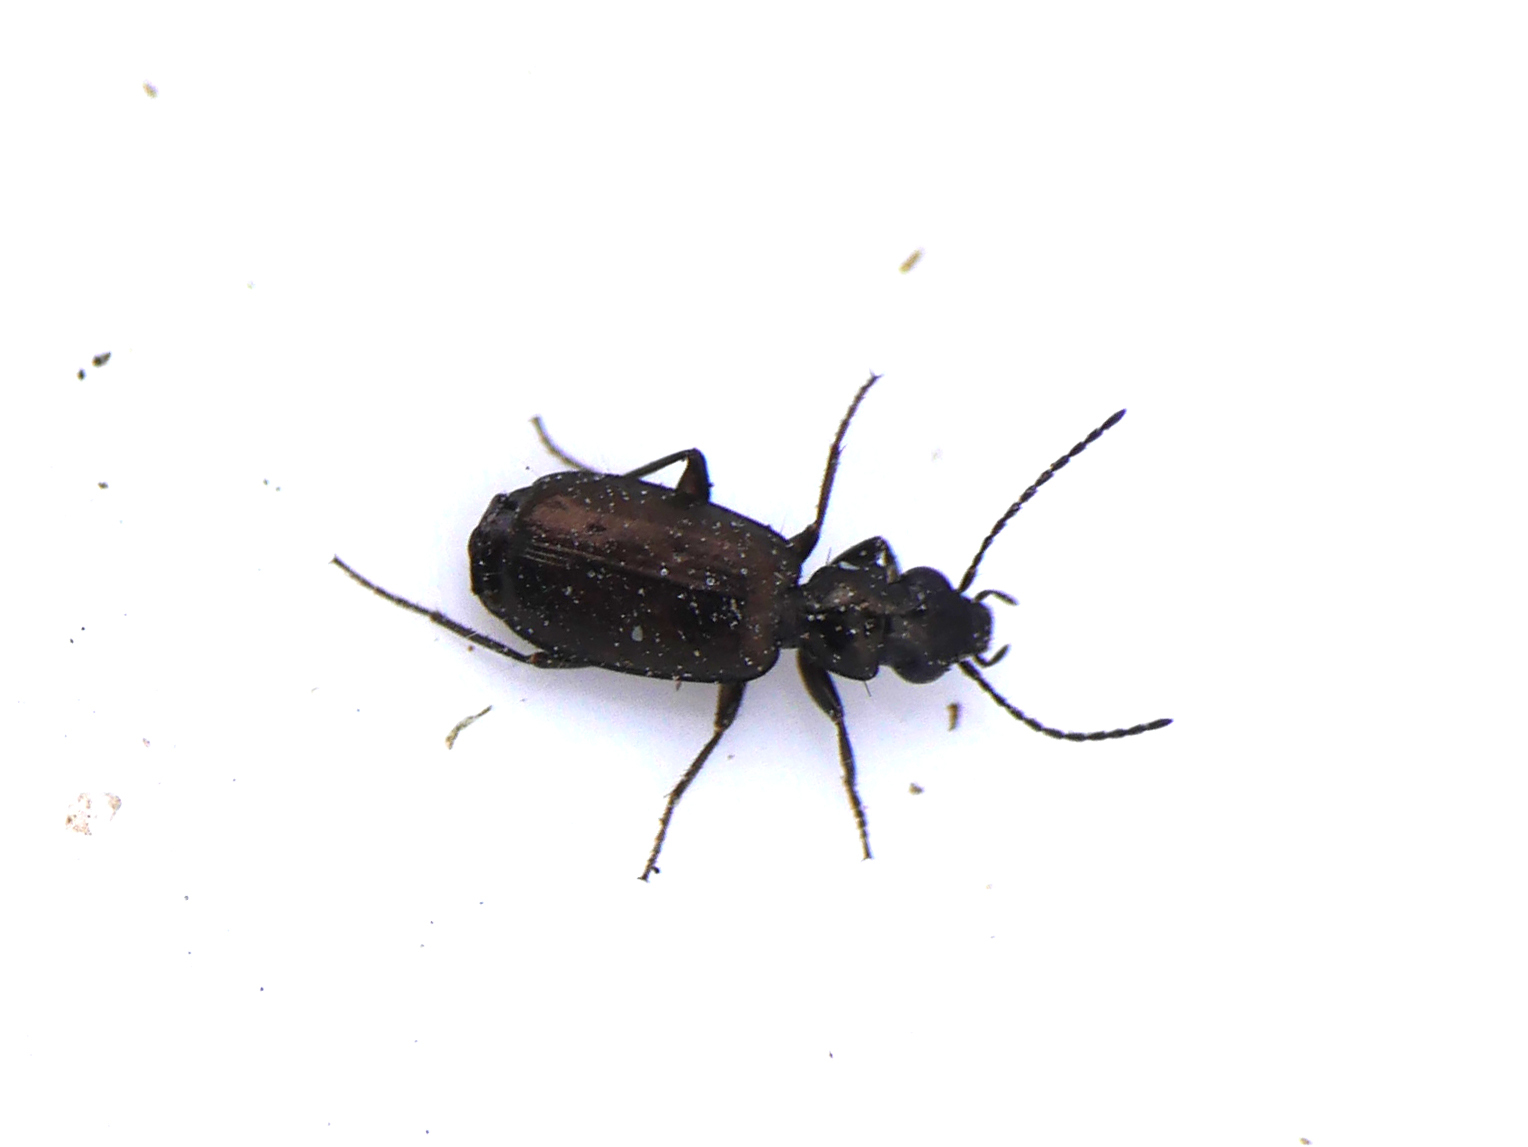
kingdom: Animalia
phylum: Arthropoda
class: Insecta
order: Coleoptera
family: Carabidae
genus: Syntomus
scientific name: Syntomus foveatus
